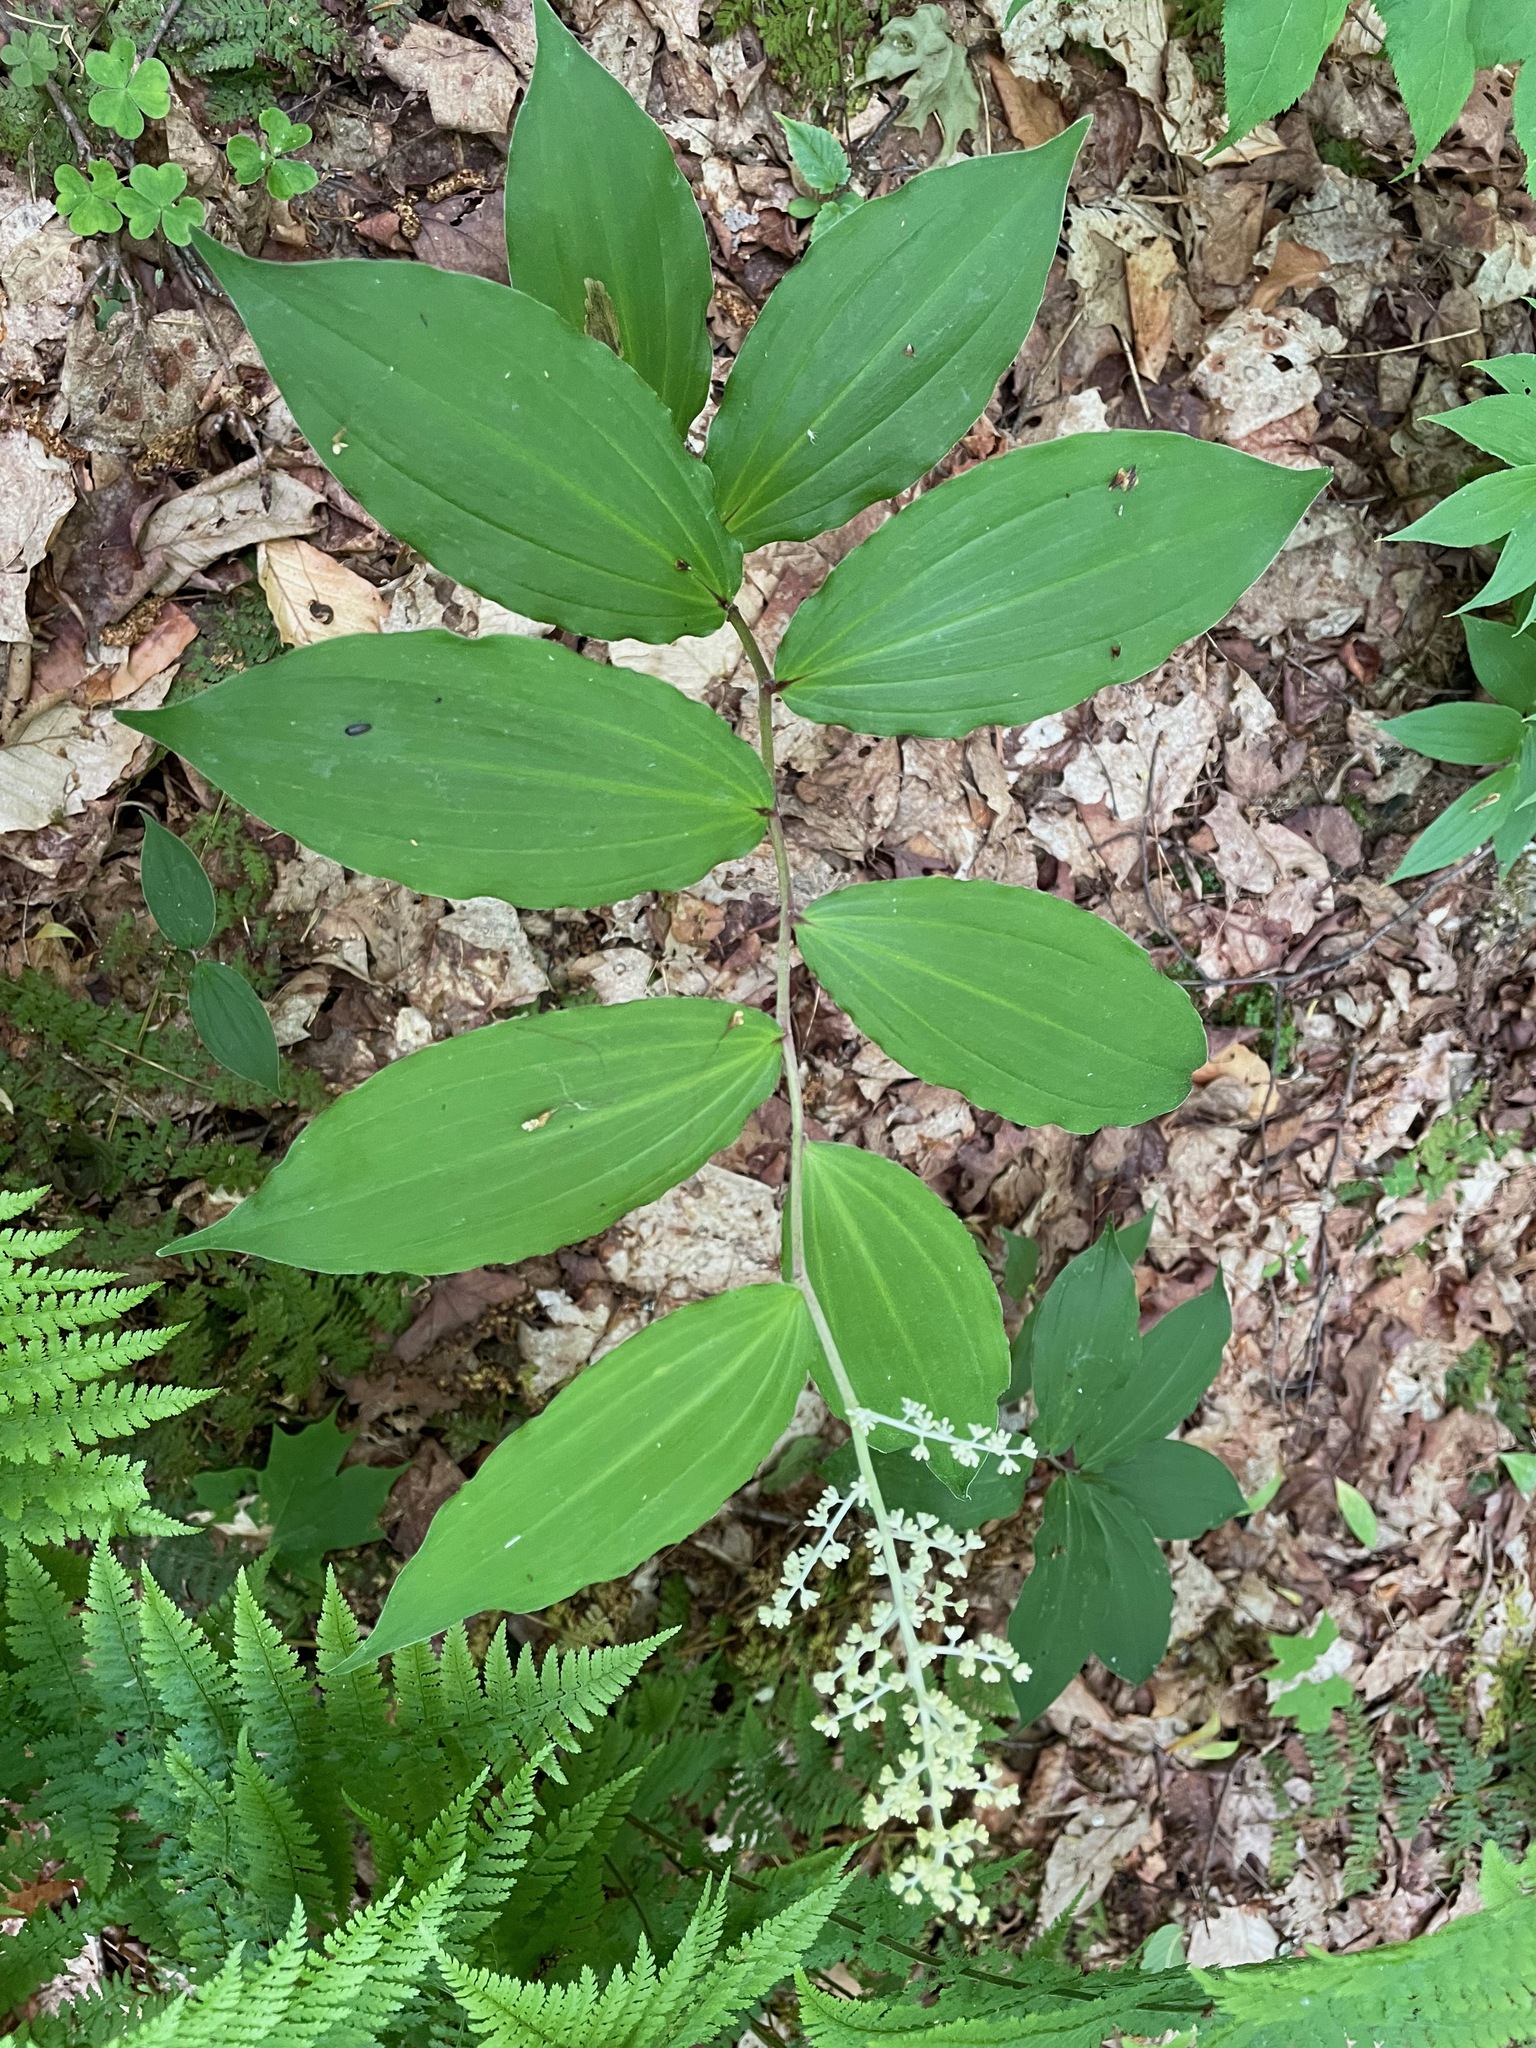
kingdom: Plantae
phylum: Tracheophyta
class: Liliopsida
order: Asparagales
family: Asparagaceae
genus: Maianthemum
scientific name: Maianthemum racemosum
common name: False spikenard
